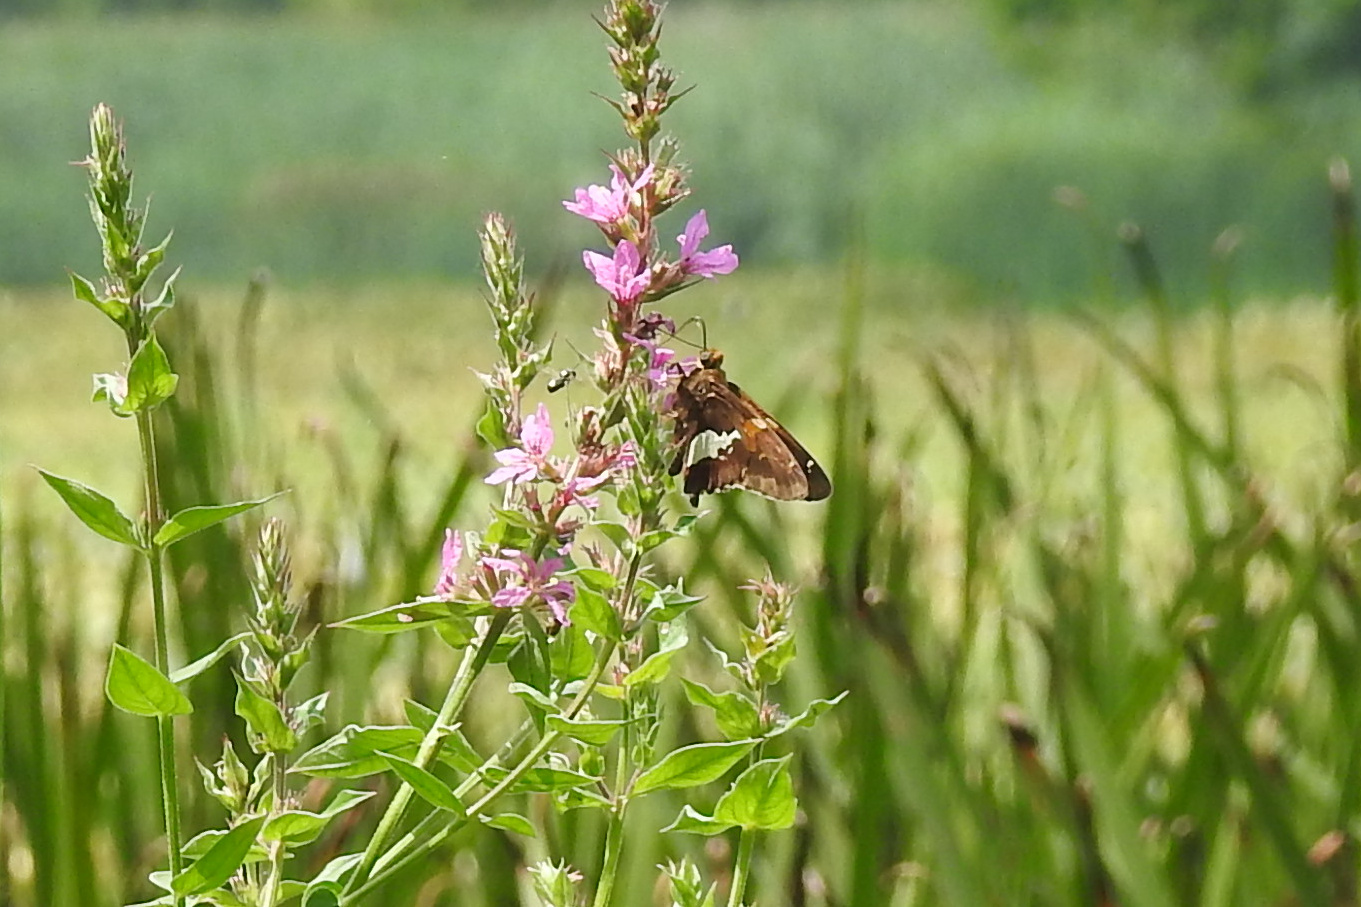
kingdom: Animalia
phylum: Arthropoda
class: Insecta
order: Lepidoptera
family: Hesperiidae
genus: Epargyreus
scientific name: Epargyreus clarus
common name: Silver-spotted skipper
